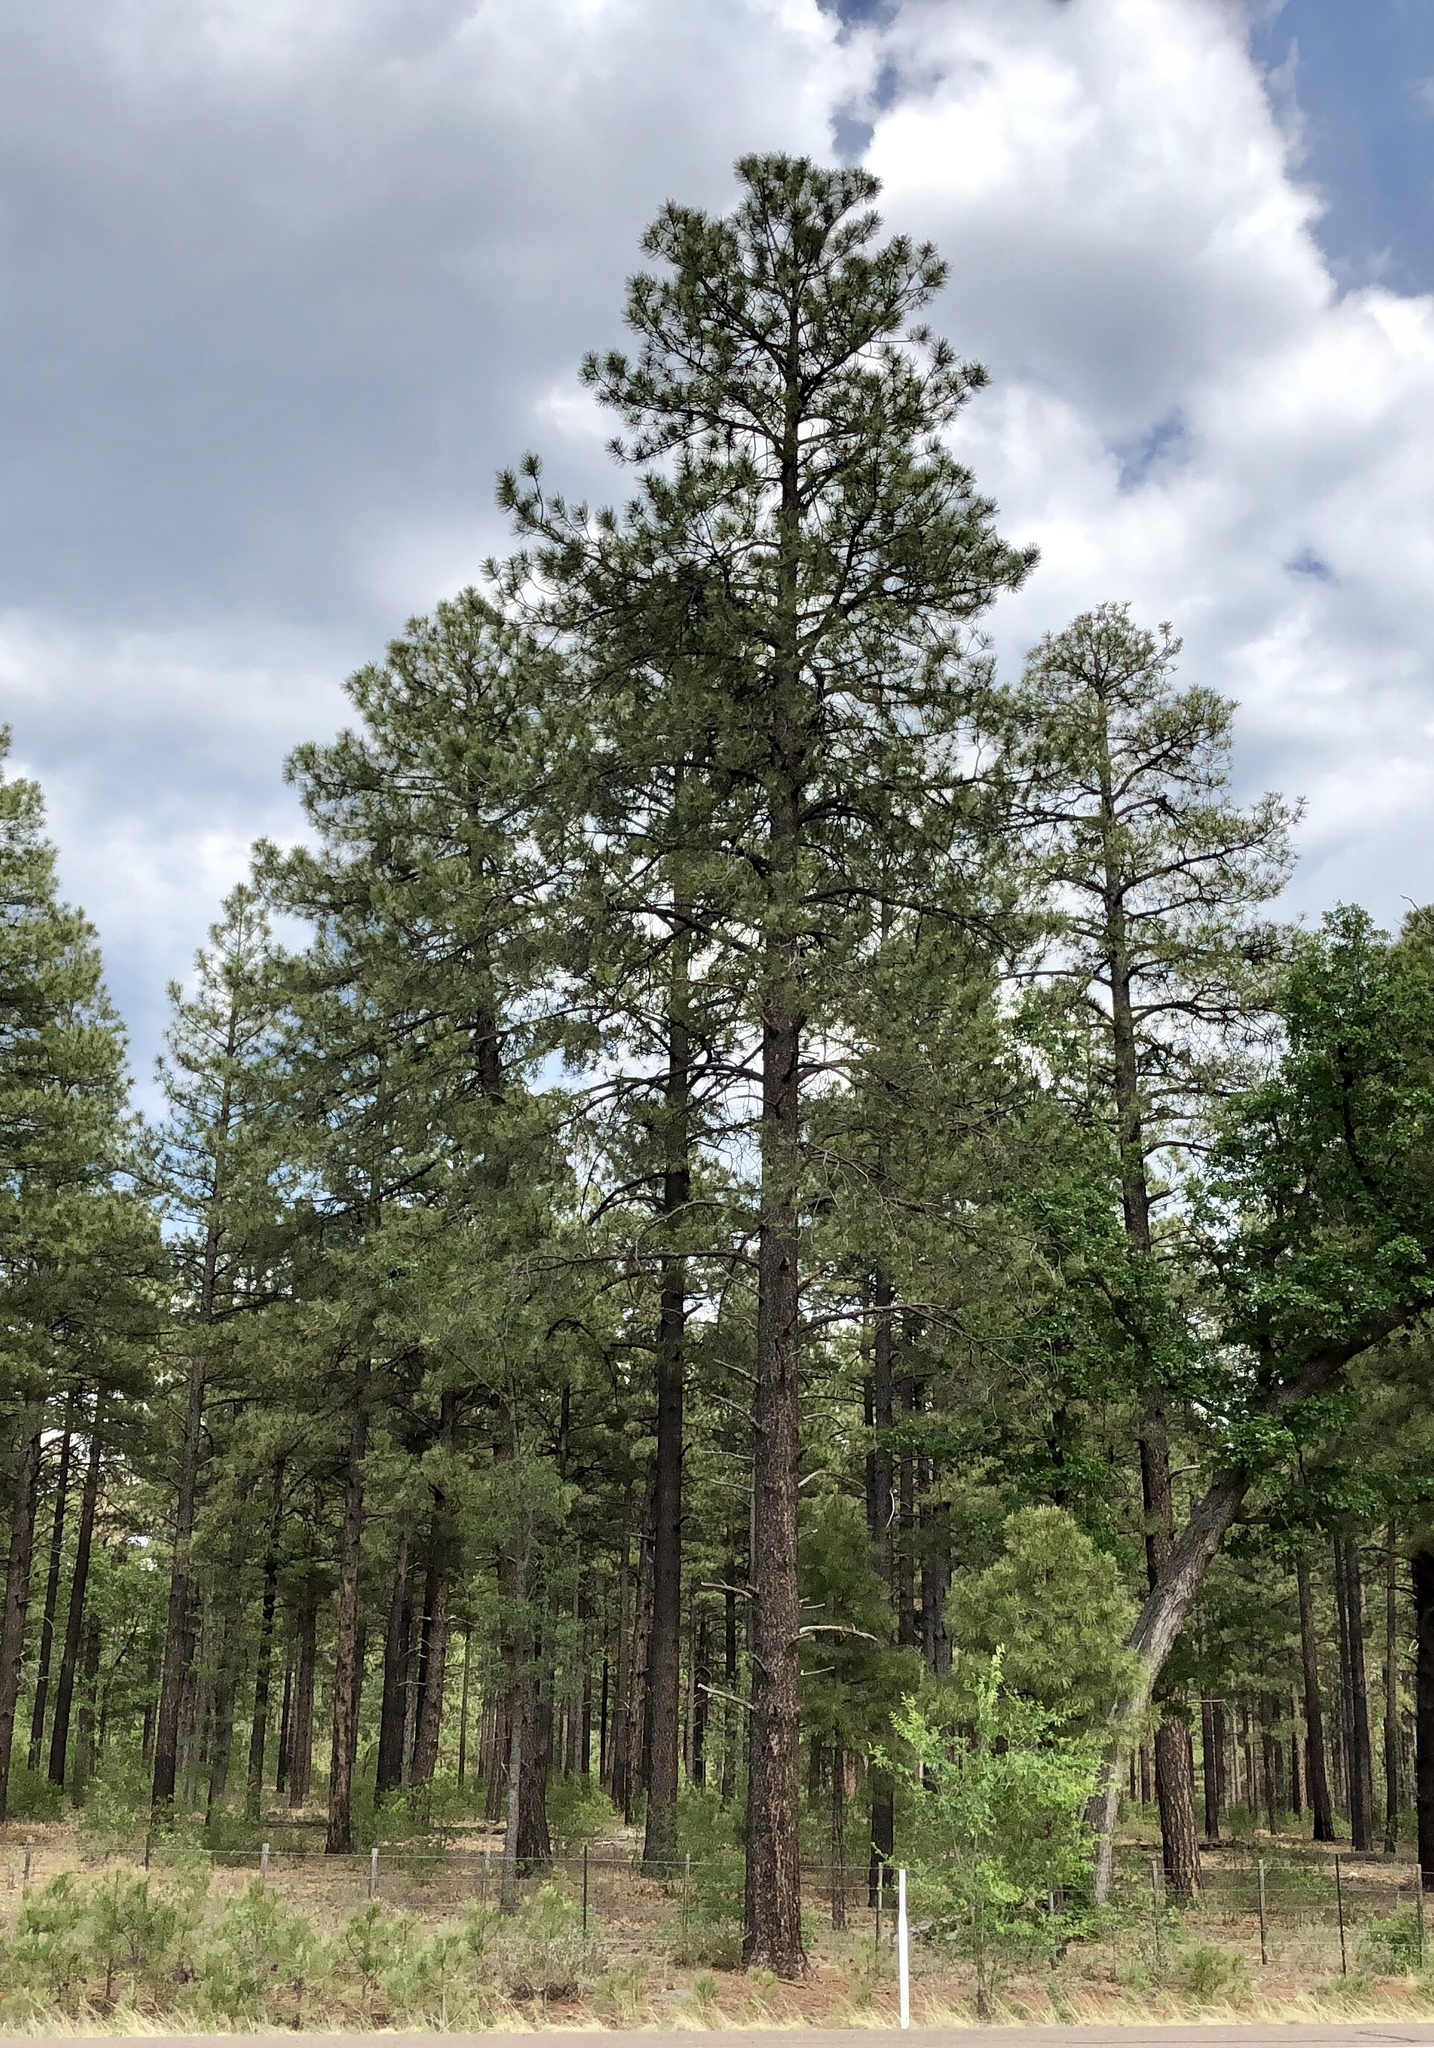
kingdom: Plantae
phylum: Tracheophyta
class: Pinopsida
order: Pinales
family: Pinaceae
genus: Pinus
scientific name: Pinus ponderosa
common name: Western yellow-pine
